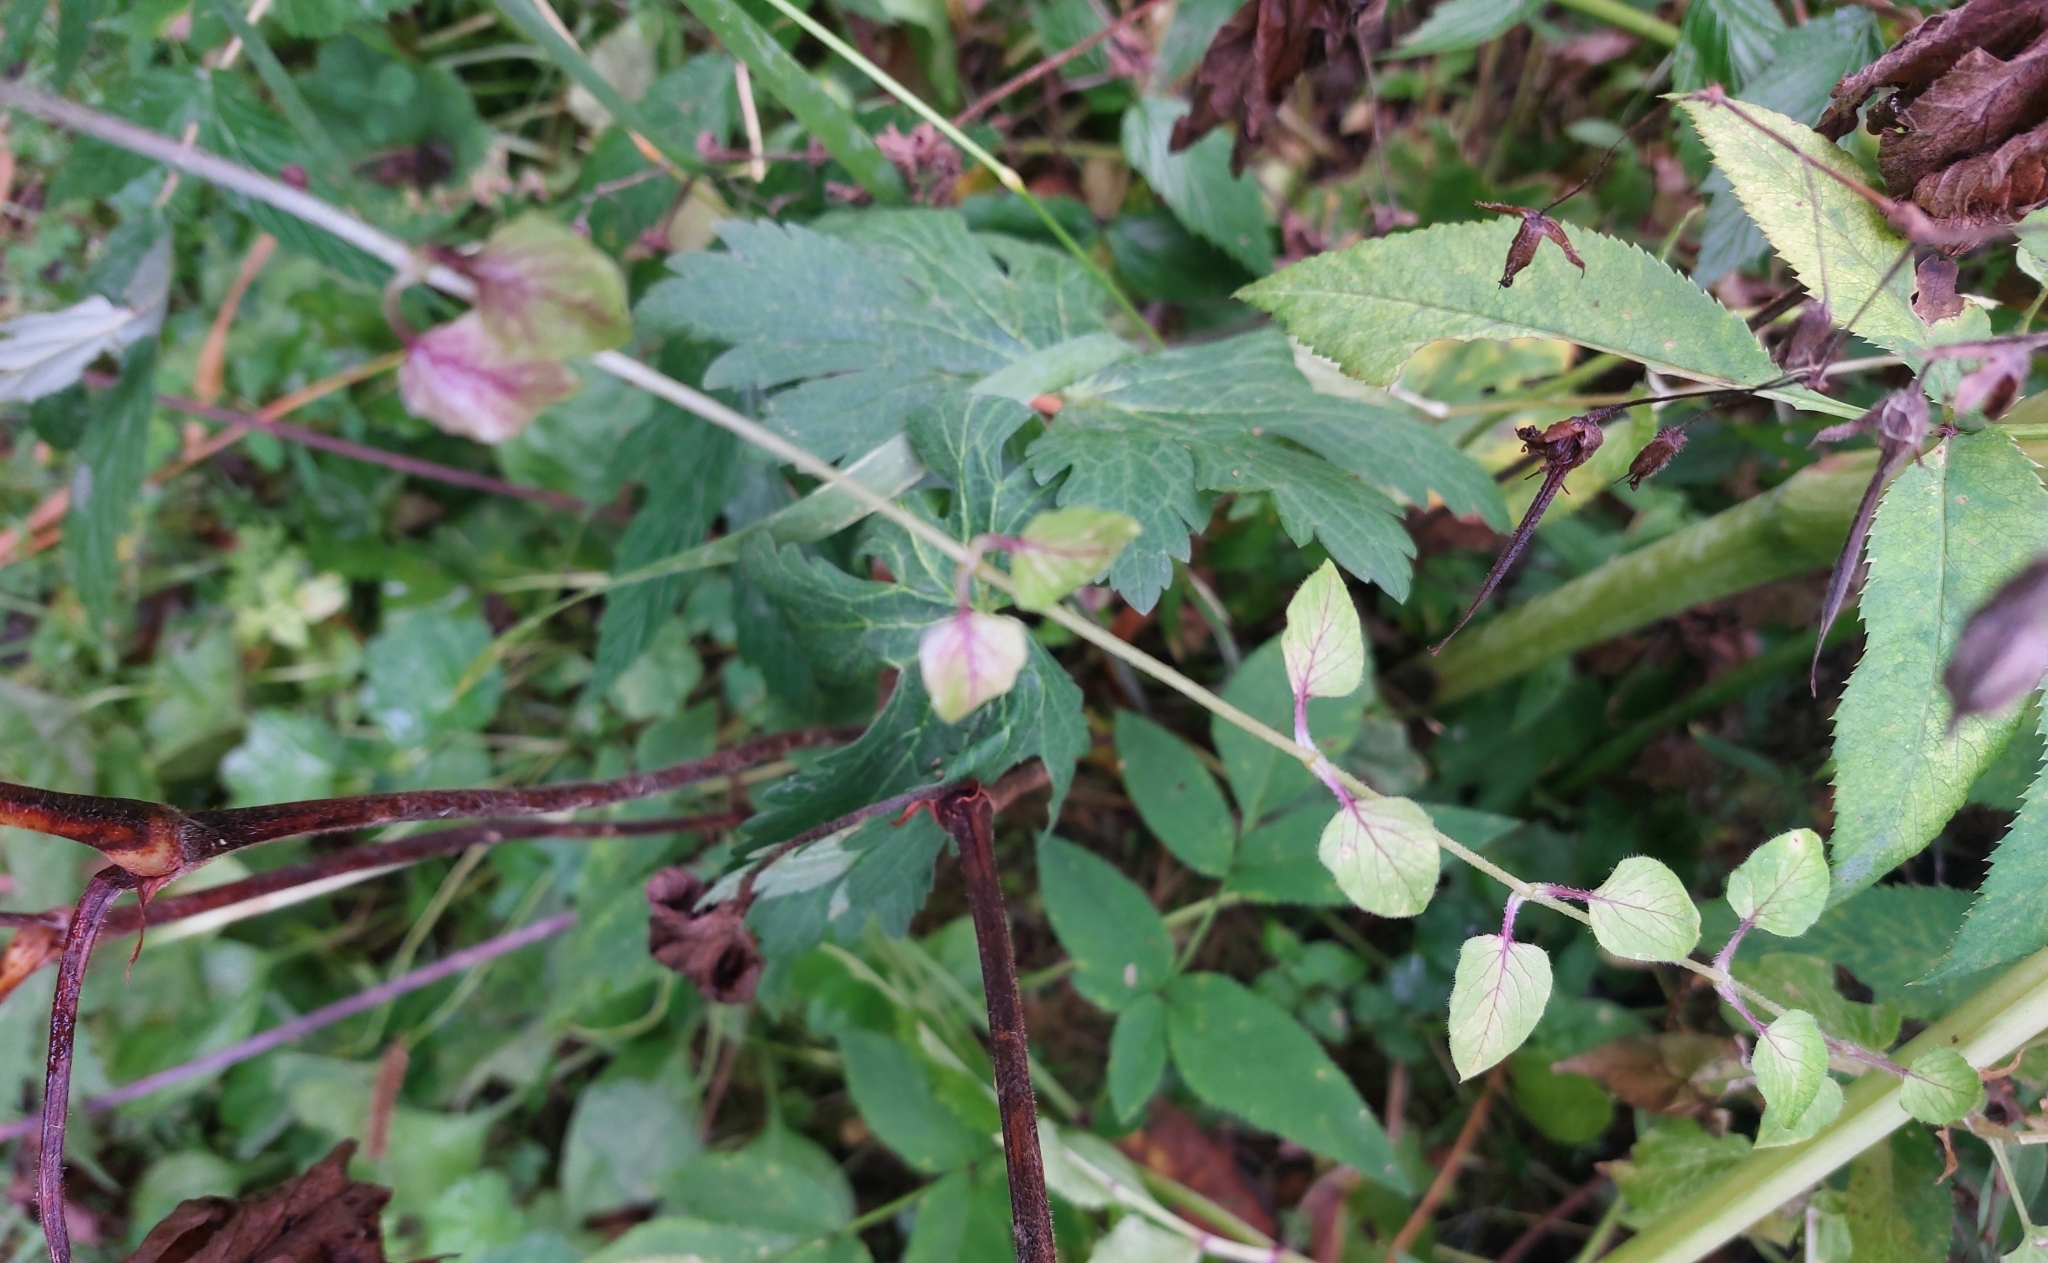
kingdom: Plantae
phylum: Tracheophyta
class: Magnoliopsida
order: Caryophyllales
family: Caryophyllaceae
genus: Stellaria
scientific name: Stellaria nemorum
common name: Wood stitchwort
